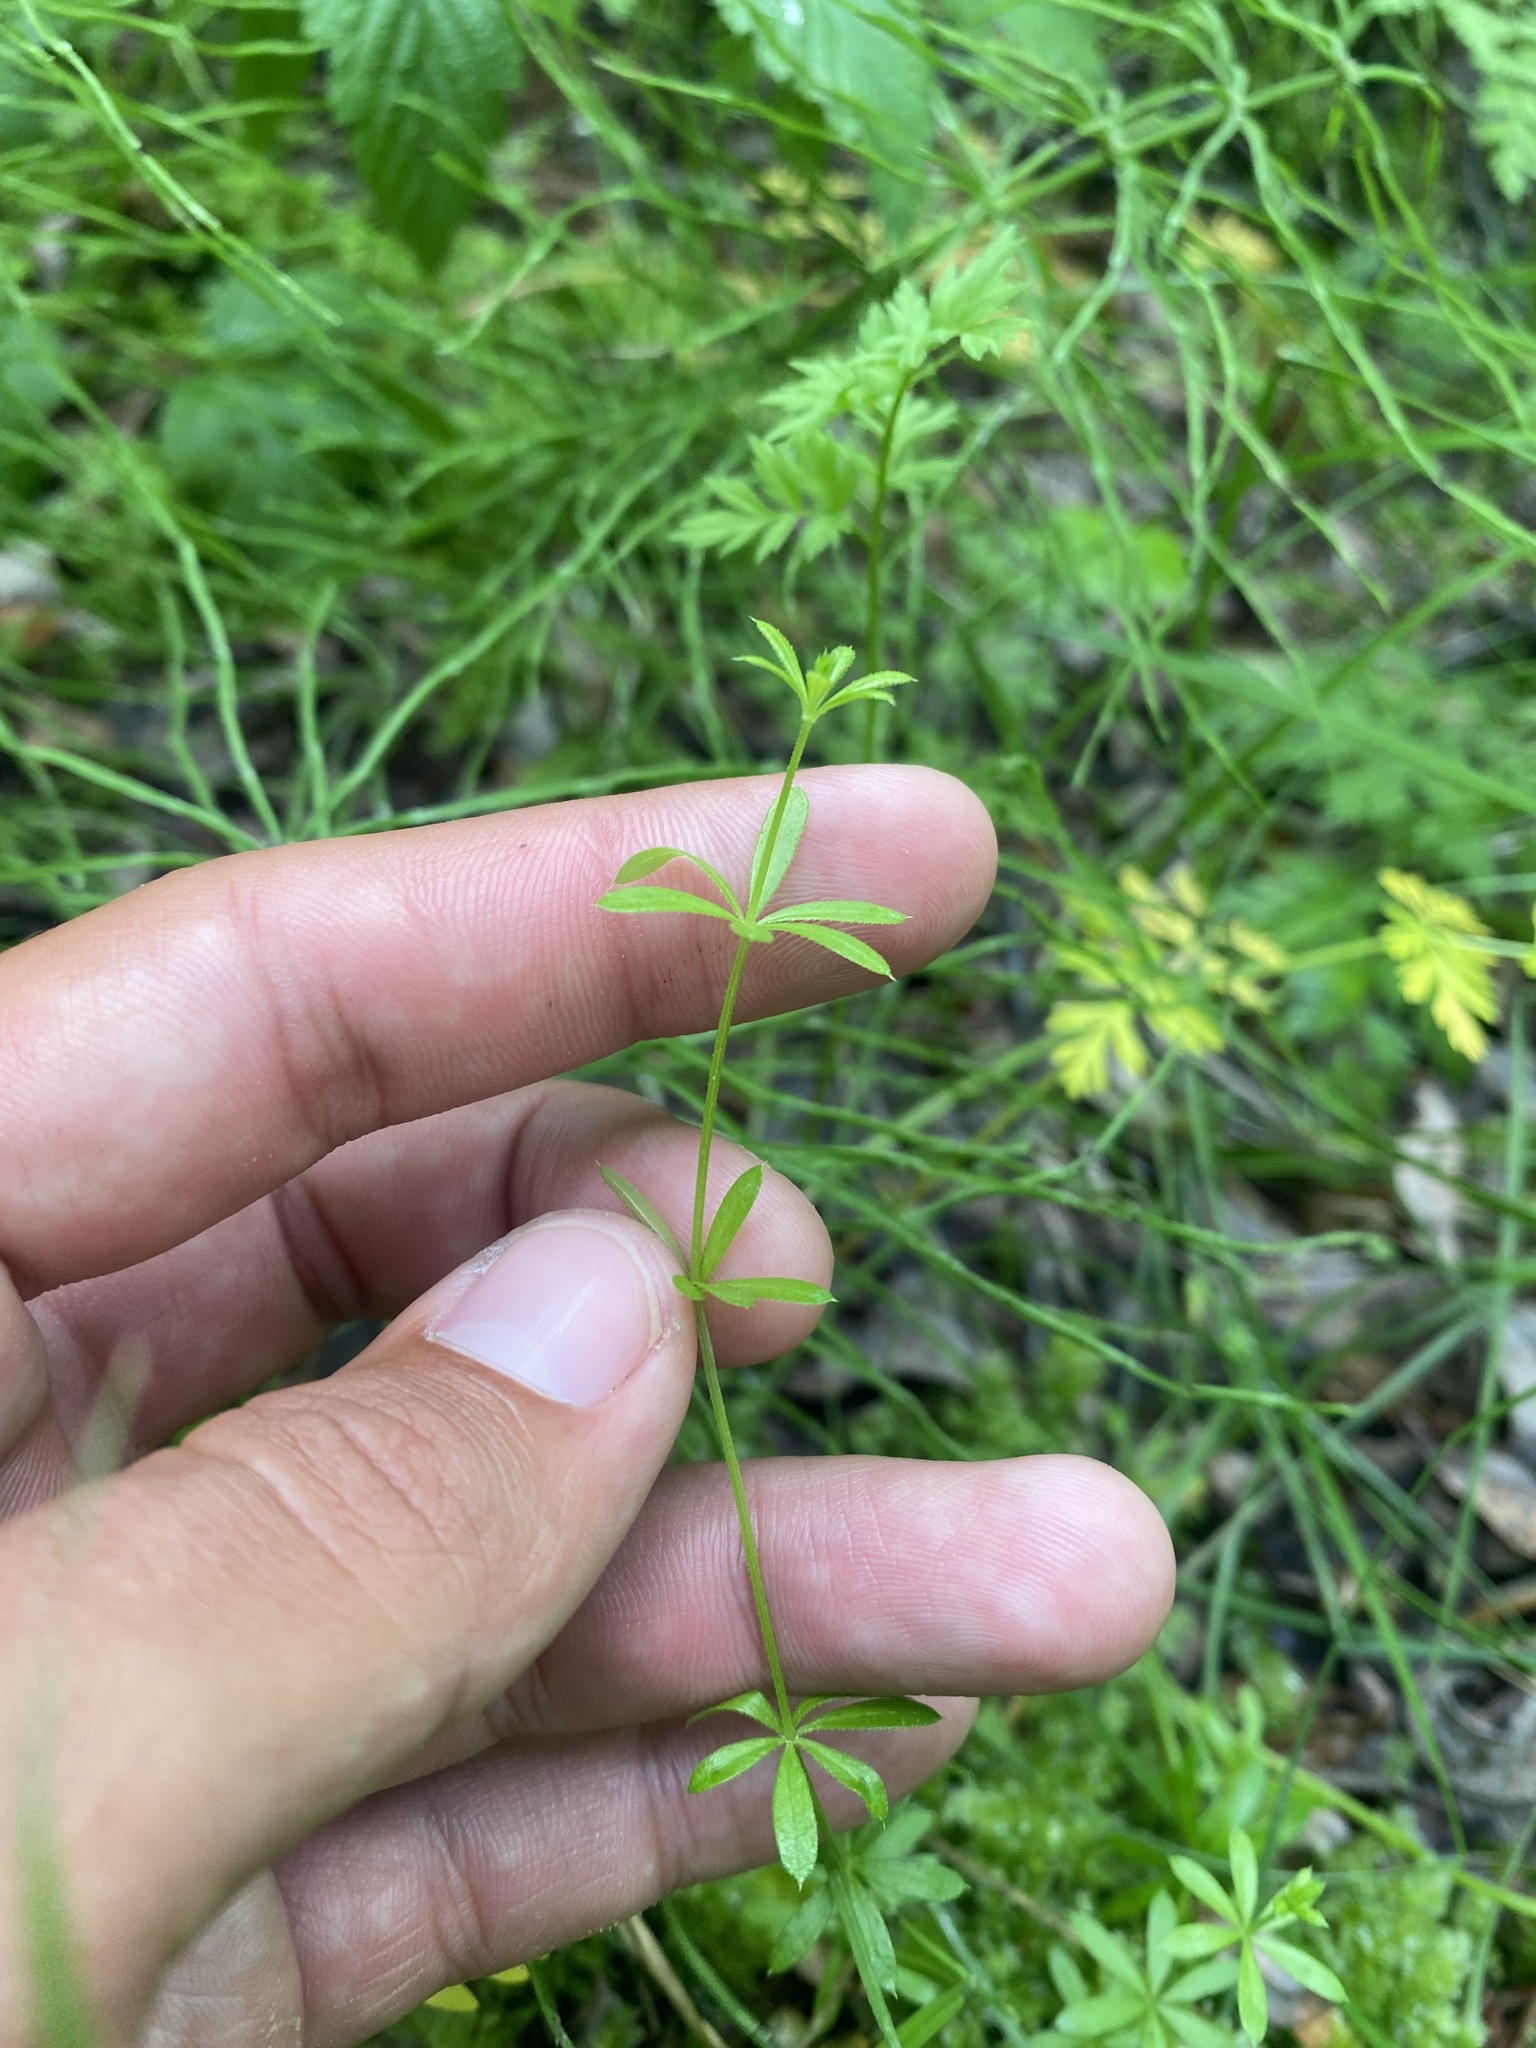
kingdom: Plantae
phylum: Tracheophyta
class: Magnoliopsida
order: Gentianales
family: Rubiaceae
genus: Galium
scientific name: Galium uliginosum
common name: Fen bedstraw
